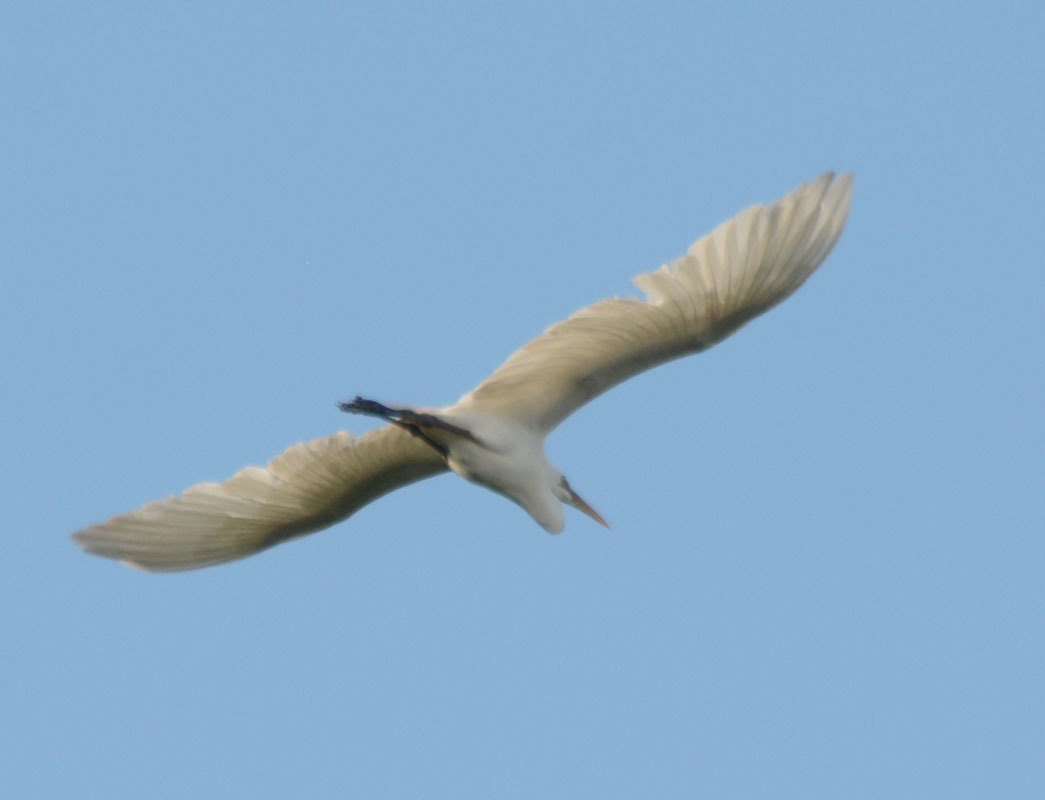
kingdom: Animalia
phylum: Chordata
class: Aves
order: Pelecaniformes
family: Ardeidae
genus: Ardea
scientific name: Ardea alba
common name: Great egret
